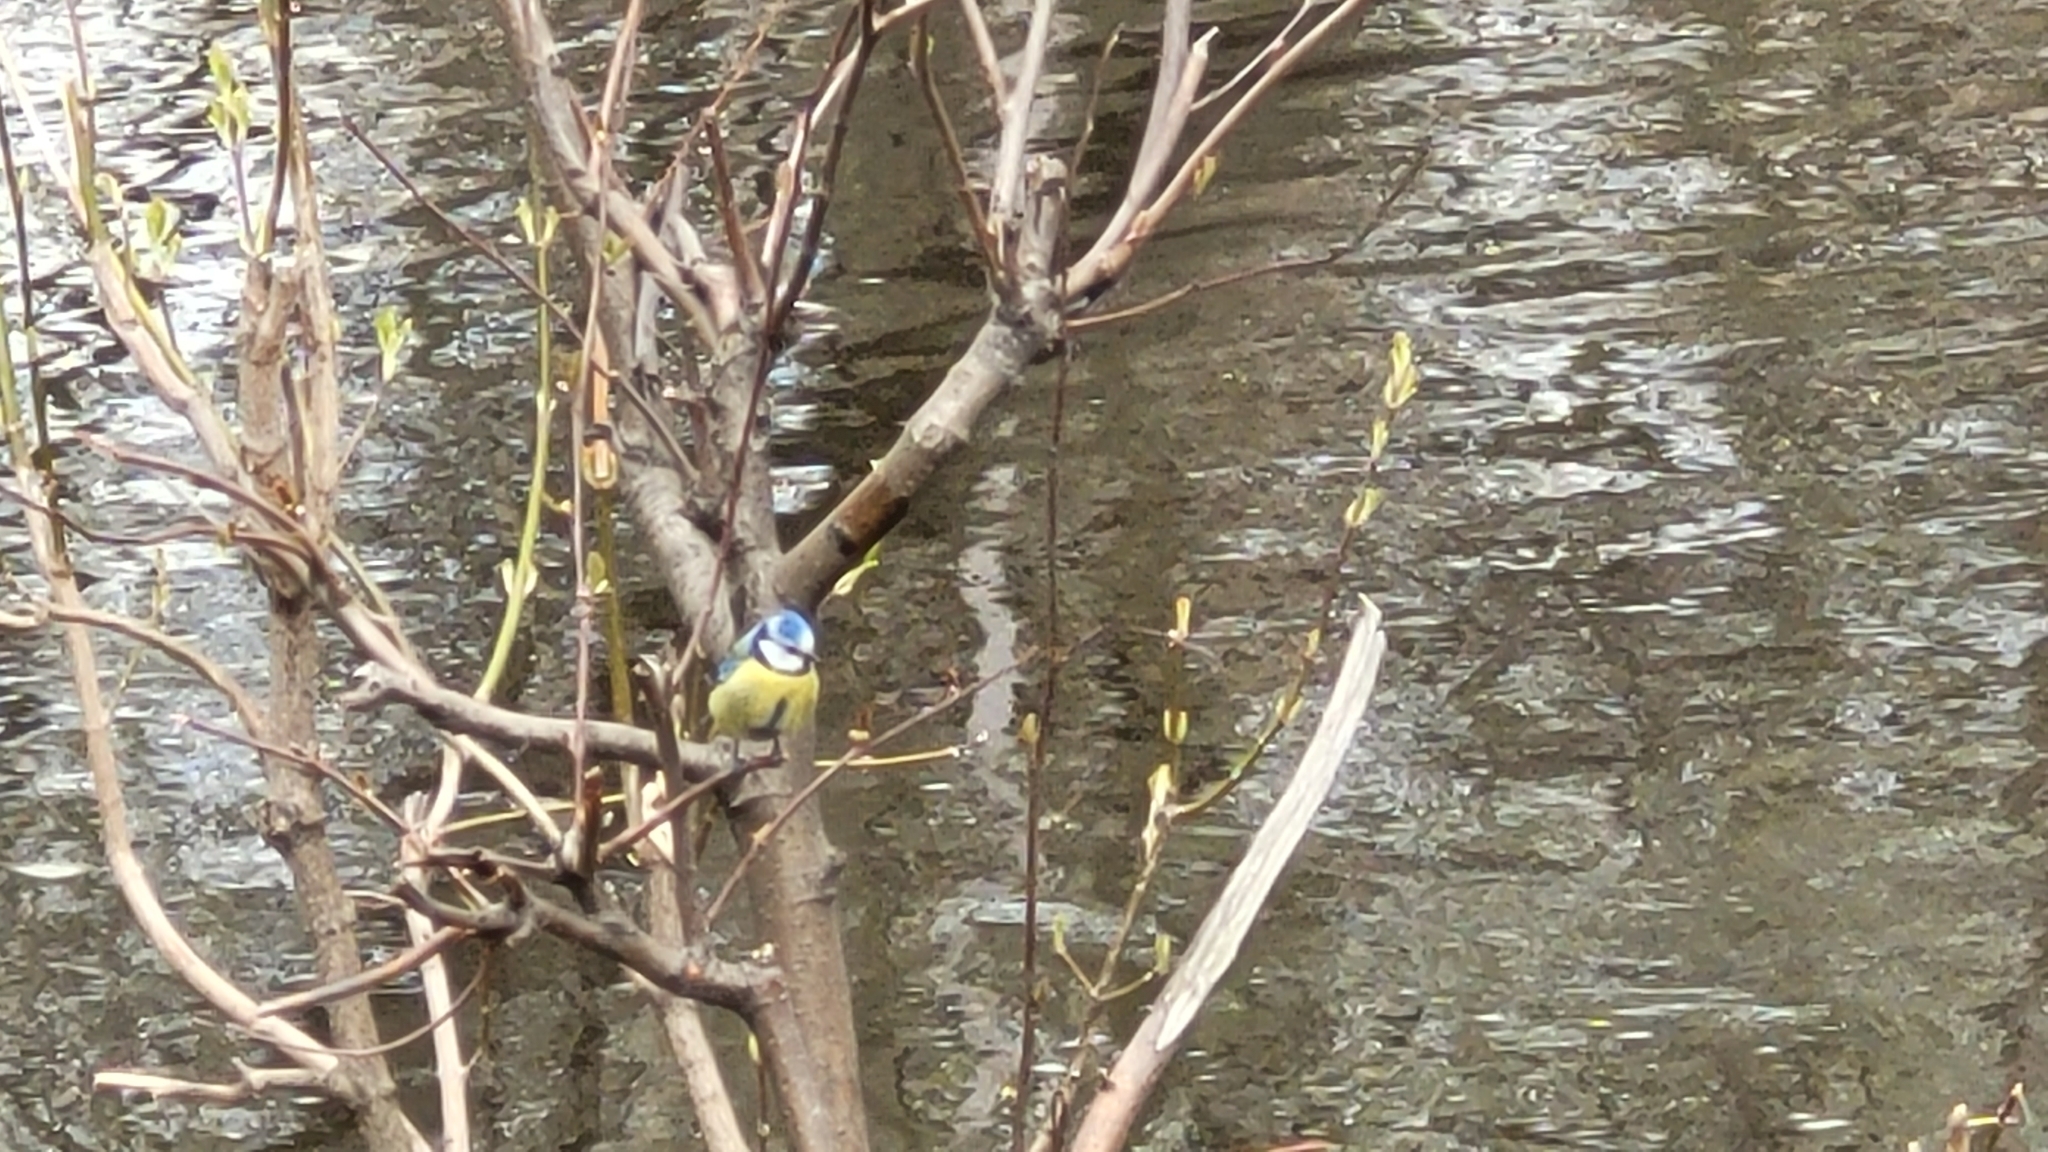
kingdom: Animalia
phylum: Chordata
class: Aves
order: Passeriformes
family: Paridae
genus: Cyanistes
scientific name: Cyanistes caeruleus
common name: Eurasian blue tit
